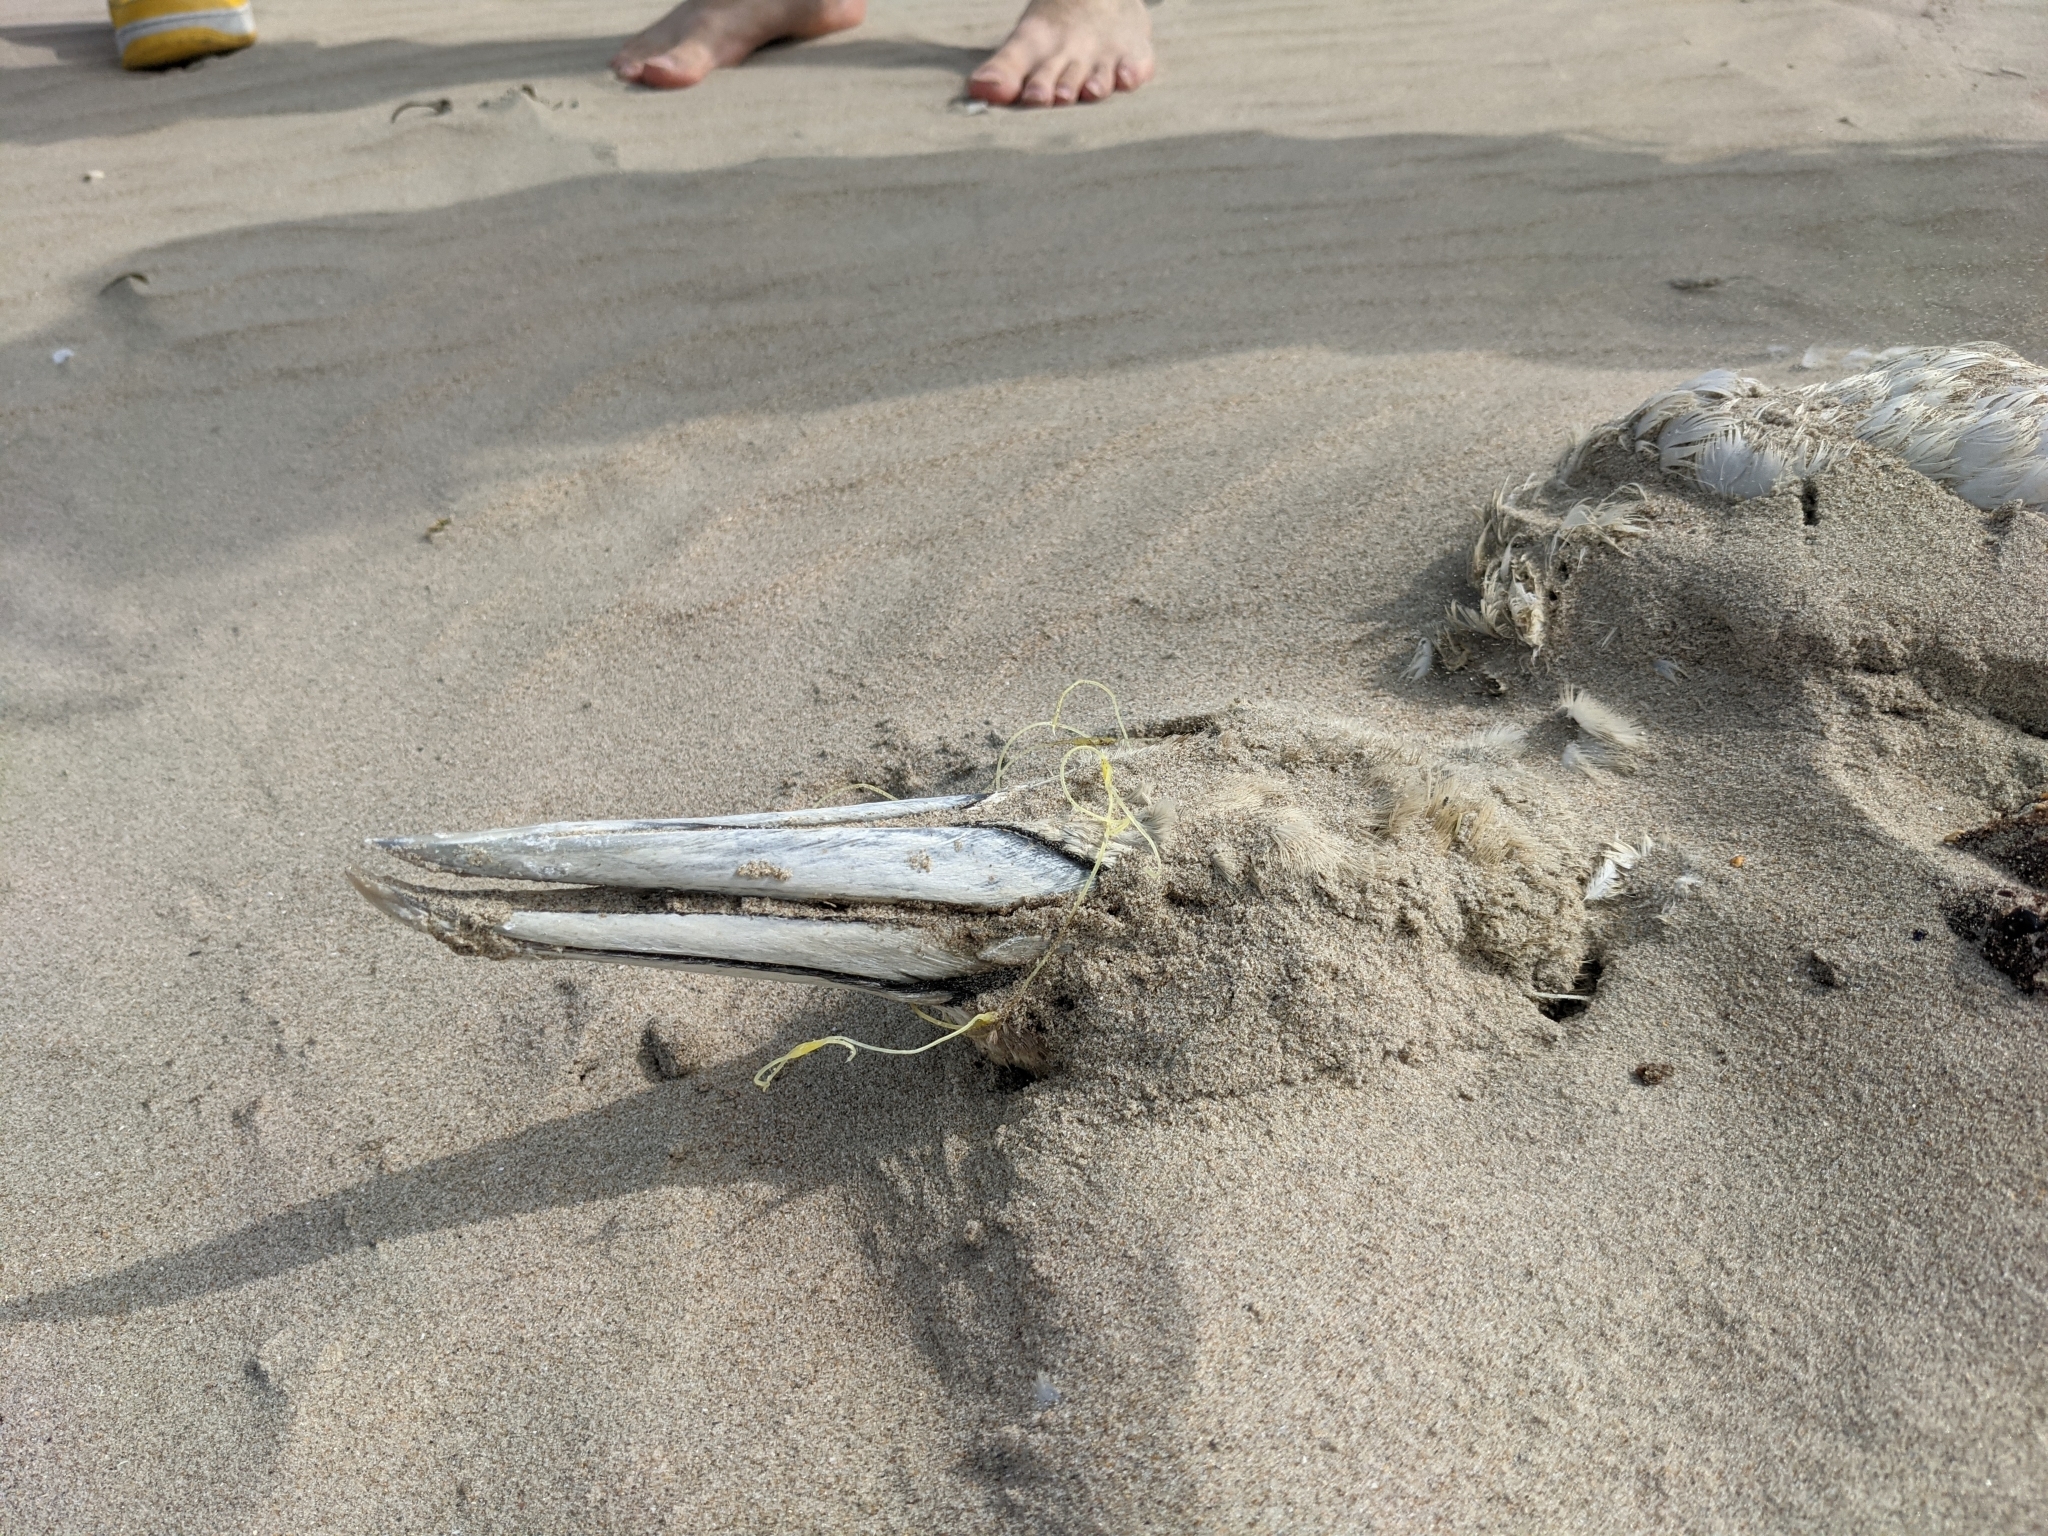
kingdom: Animalia
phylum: Chordata
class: Aves
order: Suliformes
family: Sulidae
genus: Morus
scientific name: Morus bassanus
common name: Northern gannet
